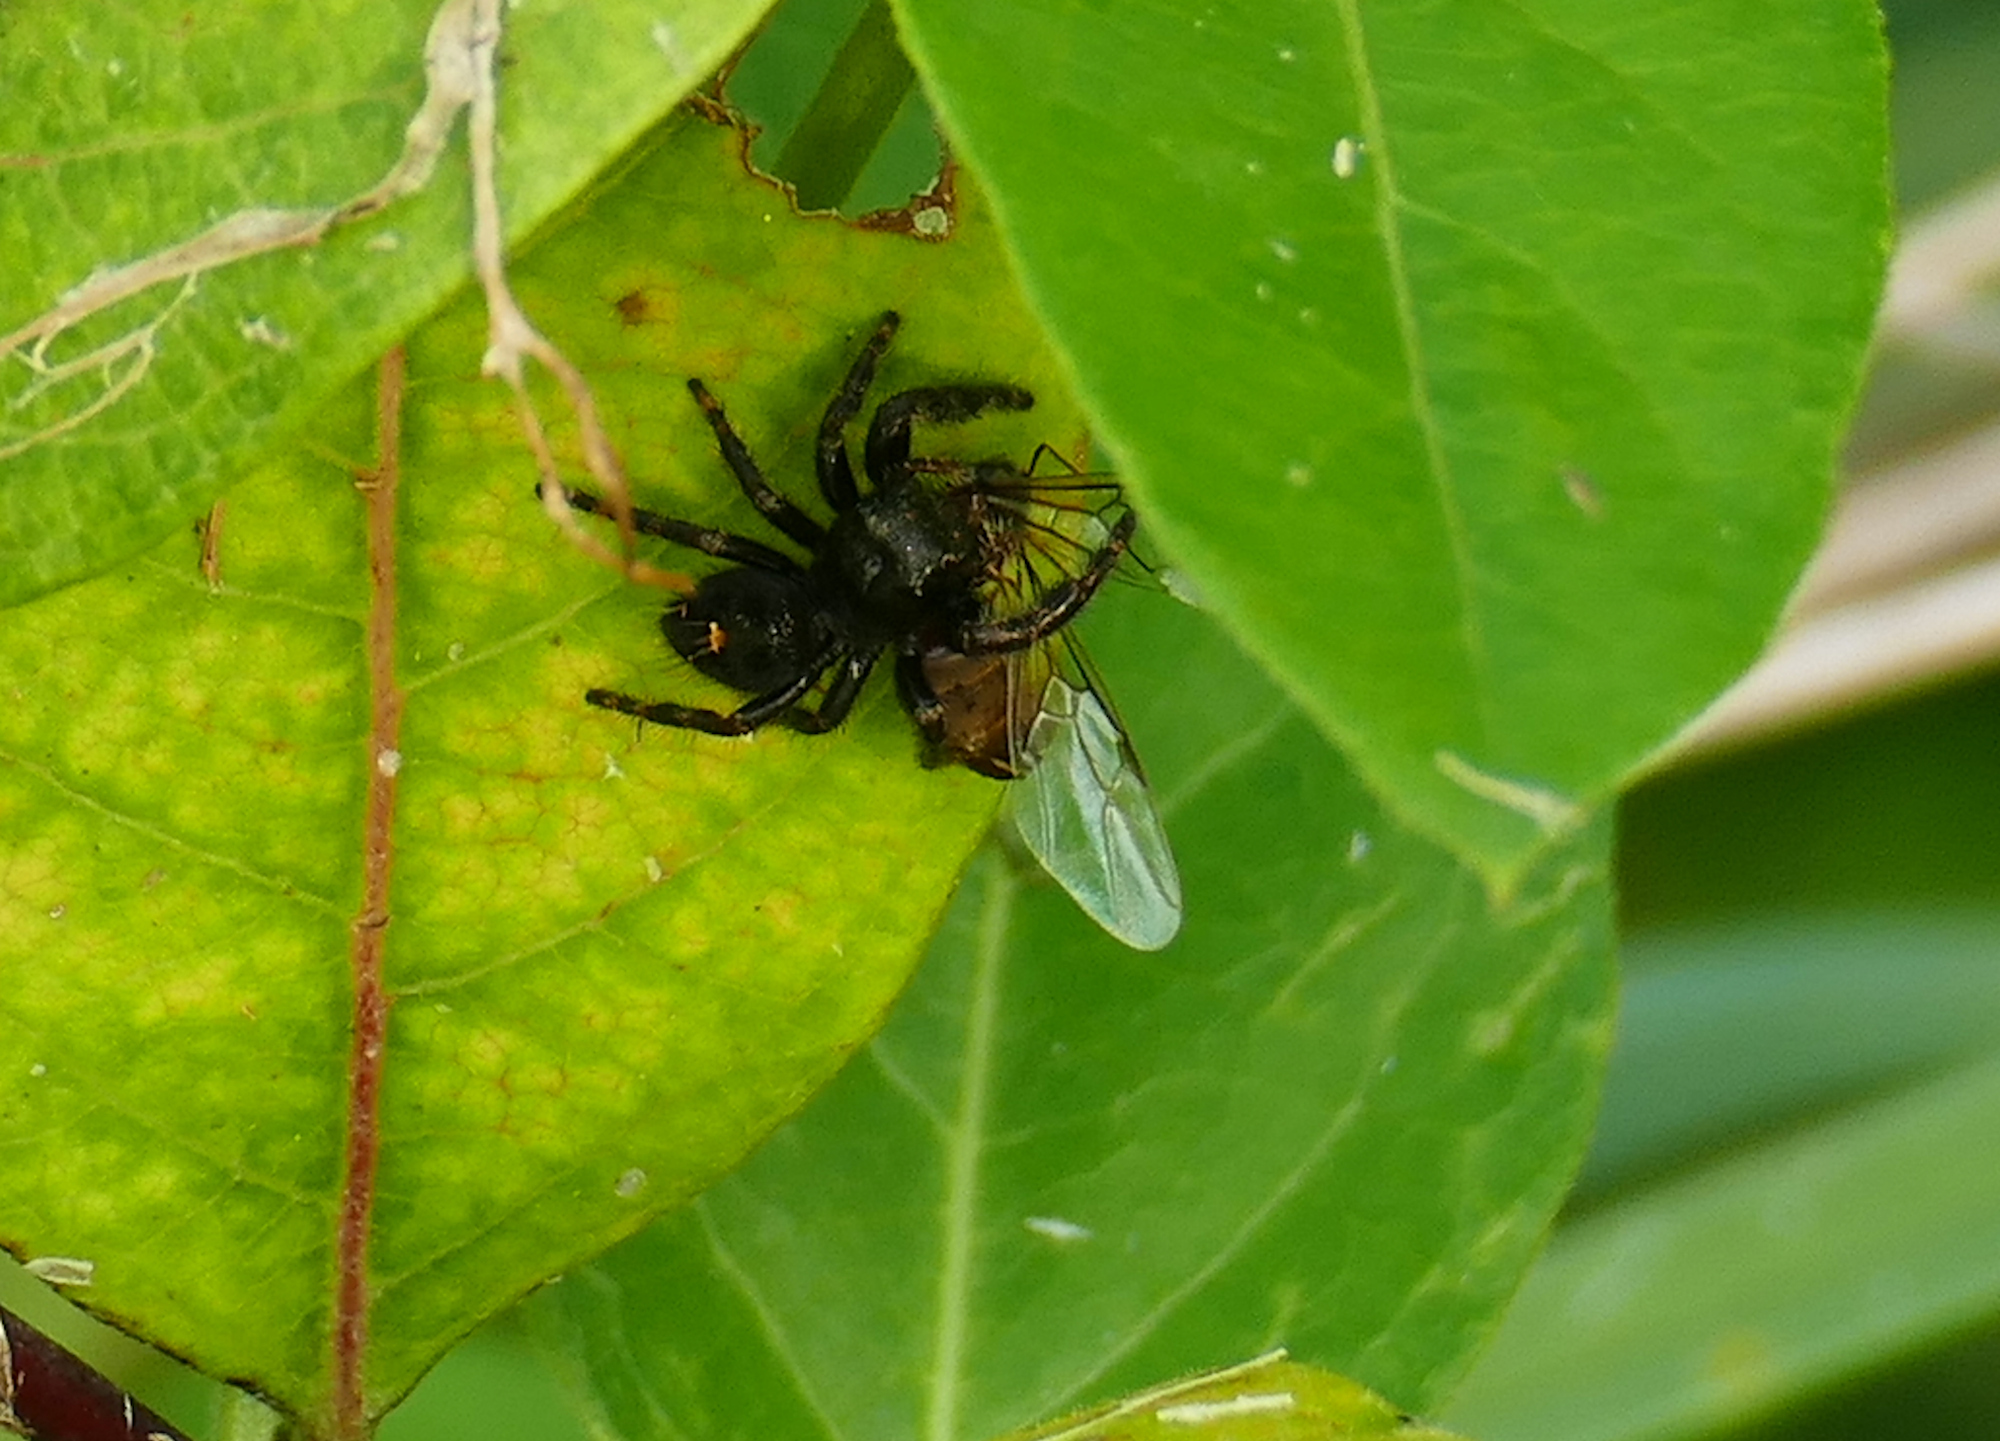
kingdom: Animalia
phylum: Arthropoda
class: Arachnida
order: Araneae
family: Salticidae
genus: Phidippus
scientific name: Phidippus audax
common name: Bold jumper
